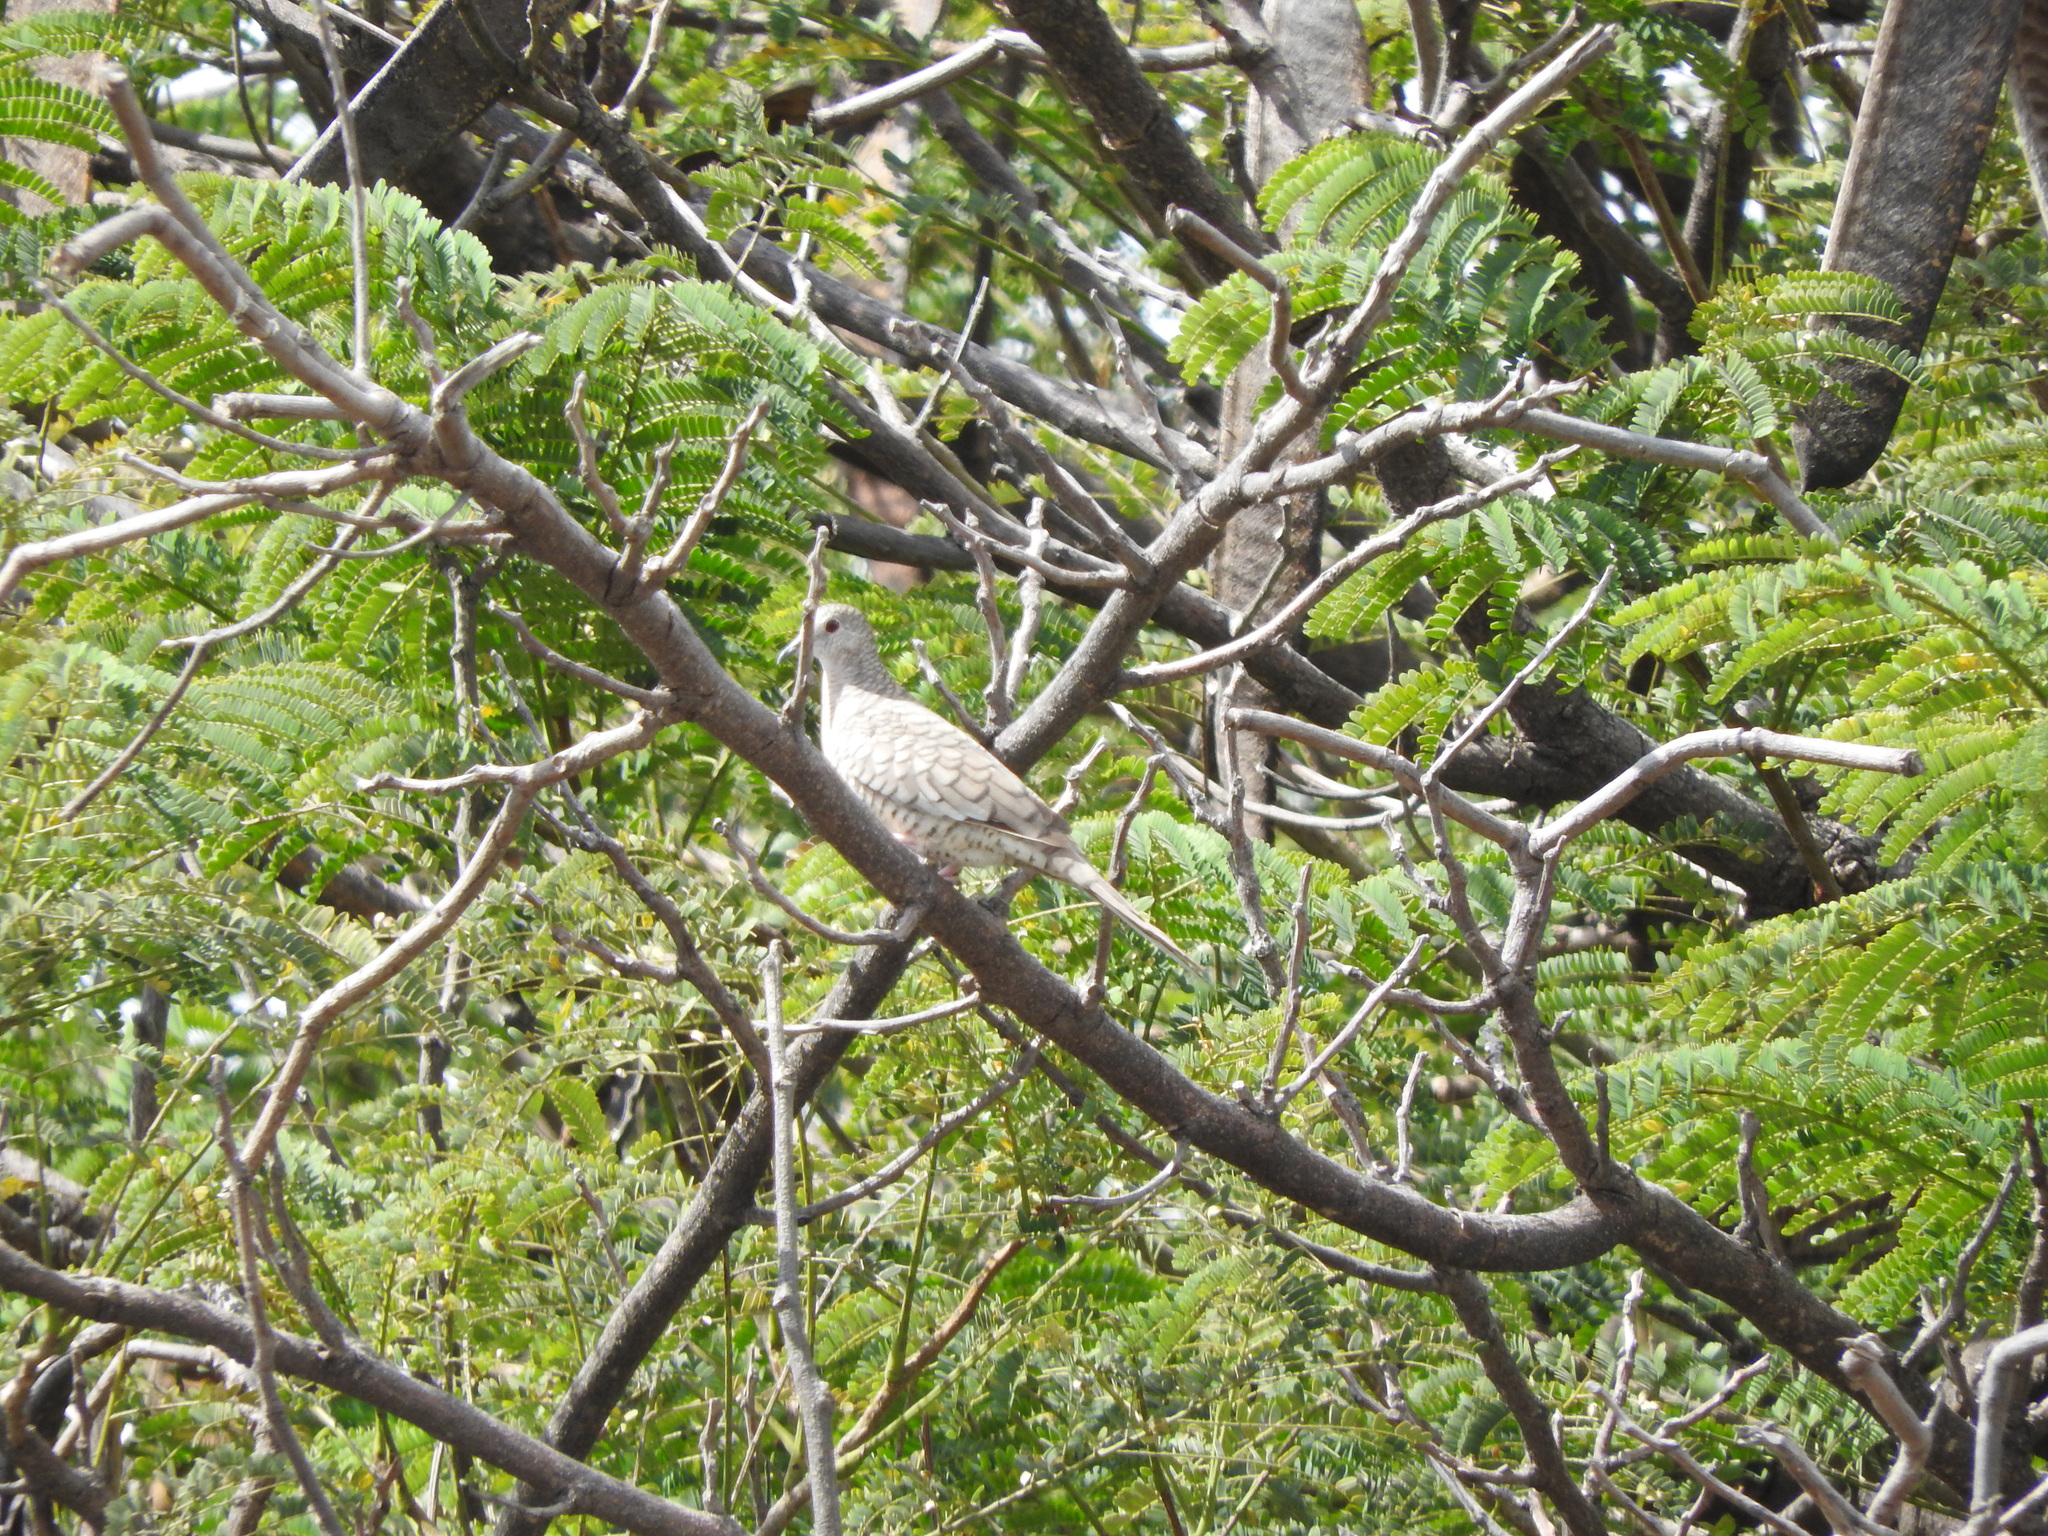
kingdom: Animalia
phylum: Chordata
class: Aves
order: Columbiformes
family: Columbidae
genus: Columbina
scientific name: Columbina inca
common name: Inca dove
